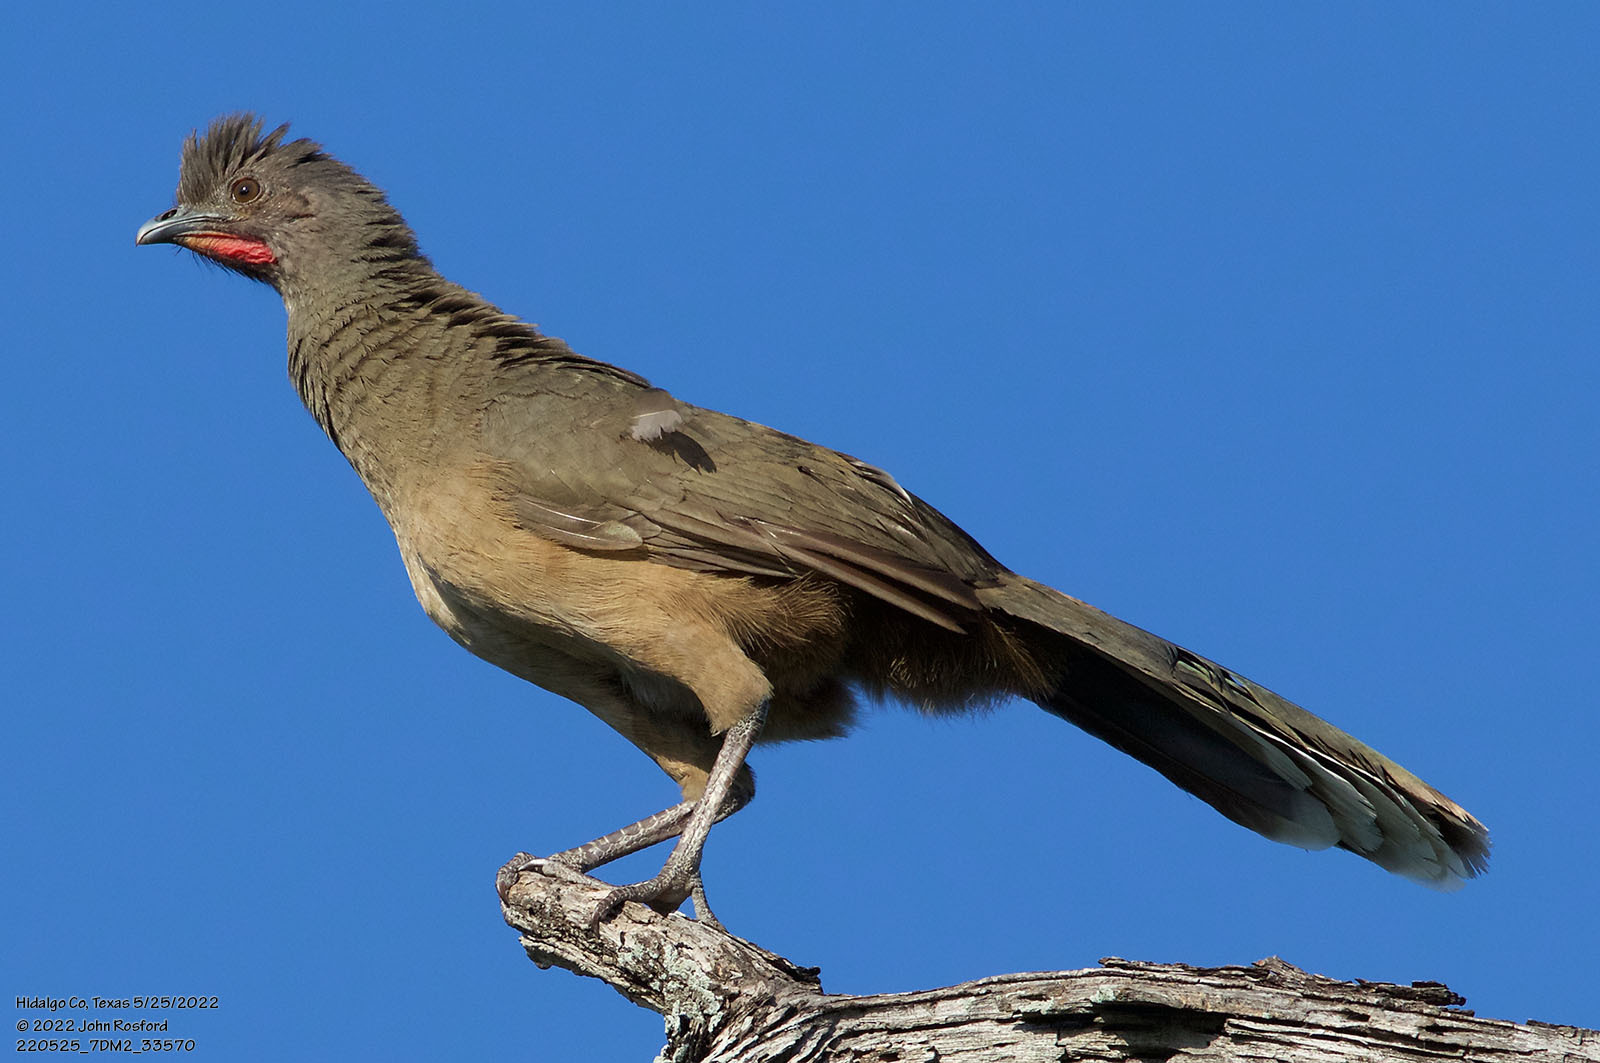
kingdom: Animalia
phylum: Chordata
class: Aves
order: Galliformes
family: Cracidae
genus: Ortalis
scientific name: Ortalis vetula
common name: Plain chachalaca
